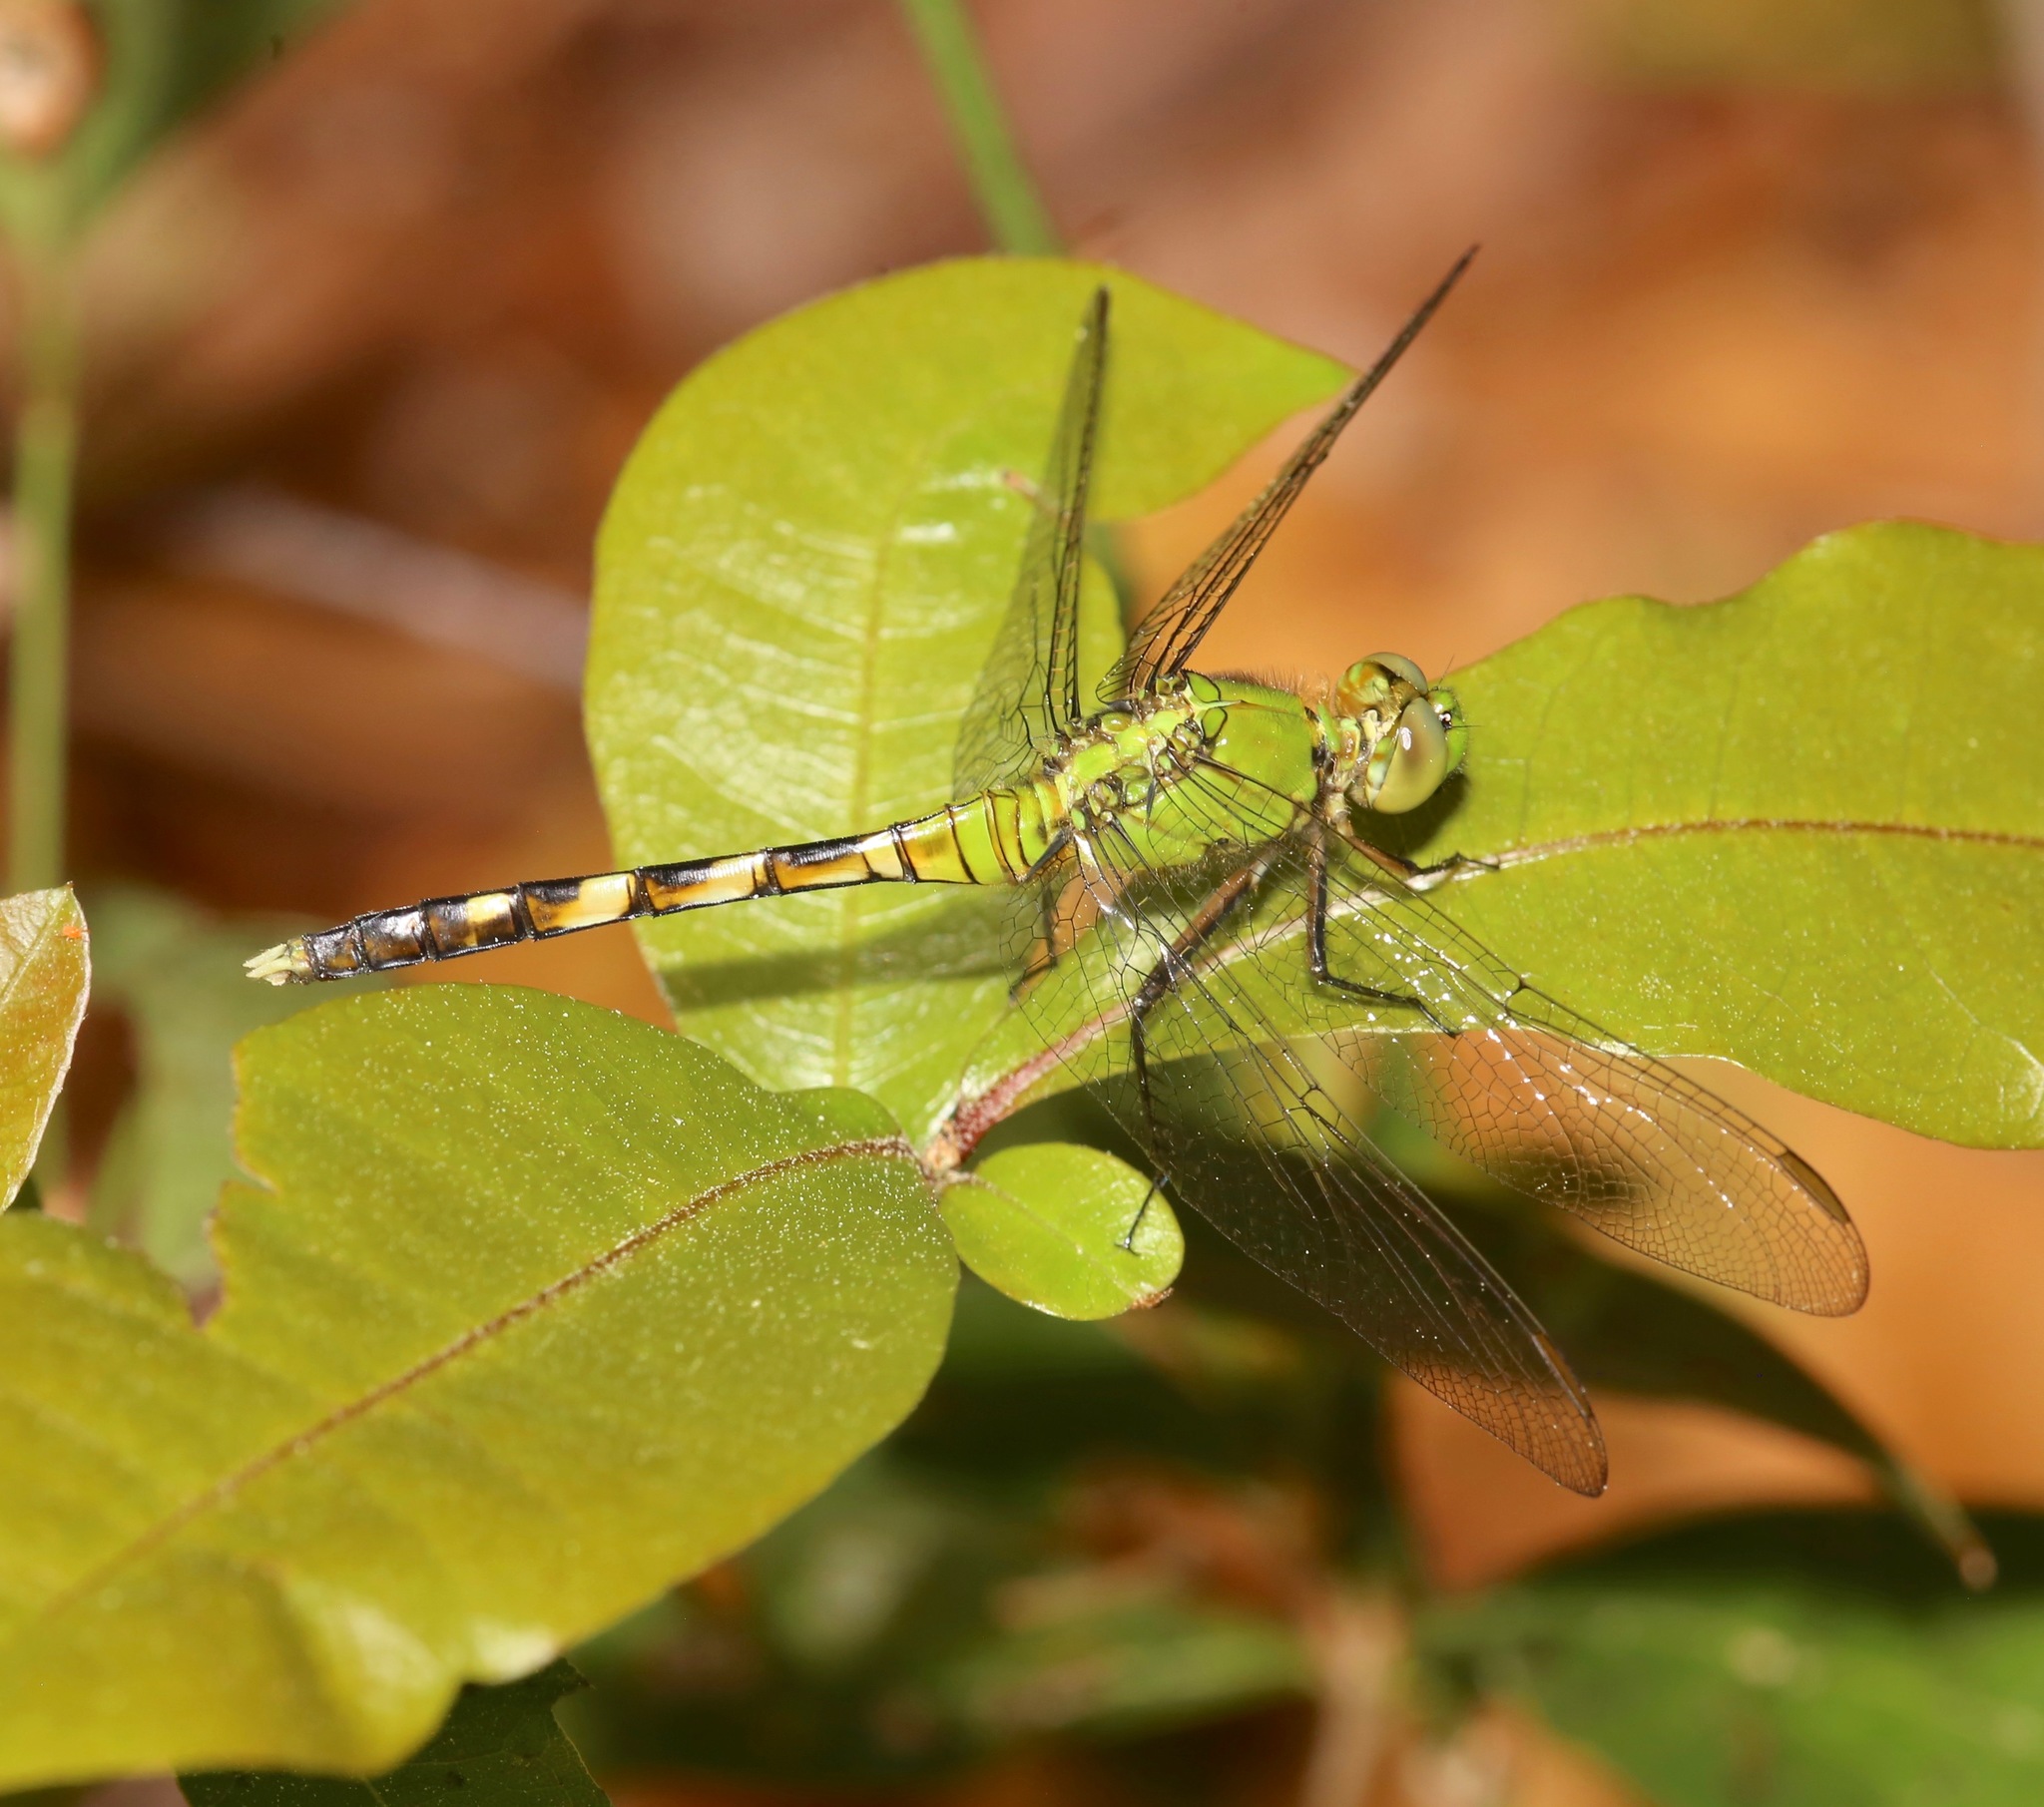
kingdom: Animalia
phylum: Arthropoda
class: Insecta
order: Odonata
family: Libellulidae
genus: Erythemis
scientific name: Erythemis simplicicollis
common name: Eastern pondhawk
